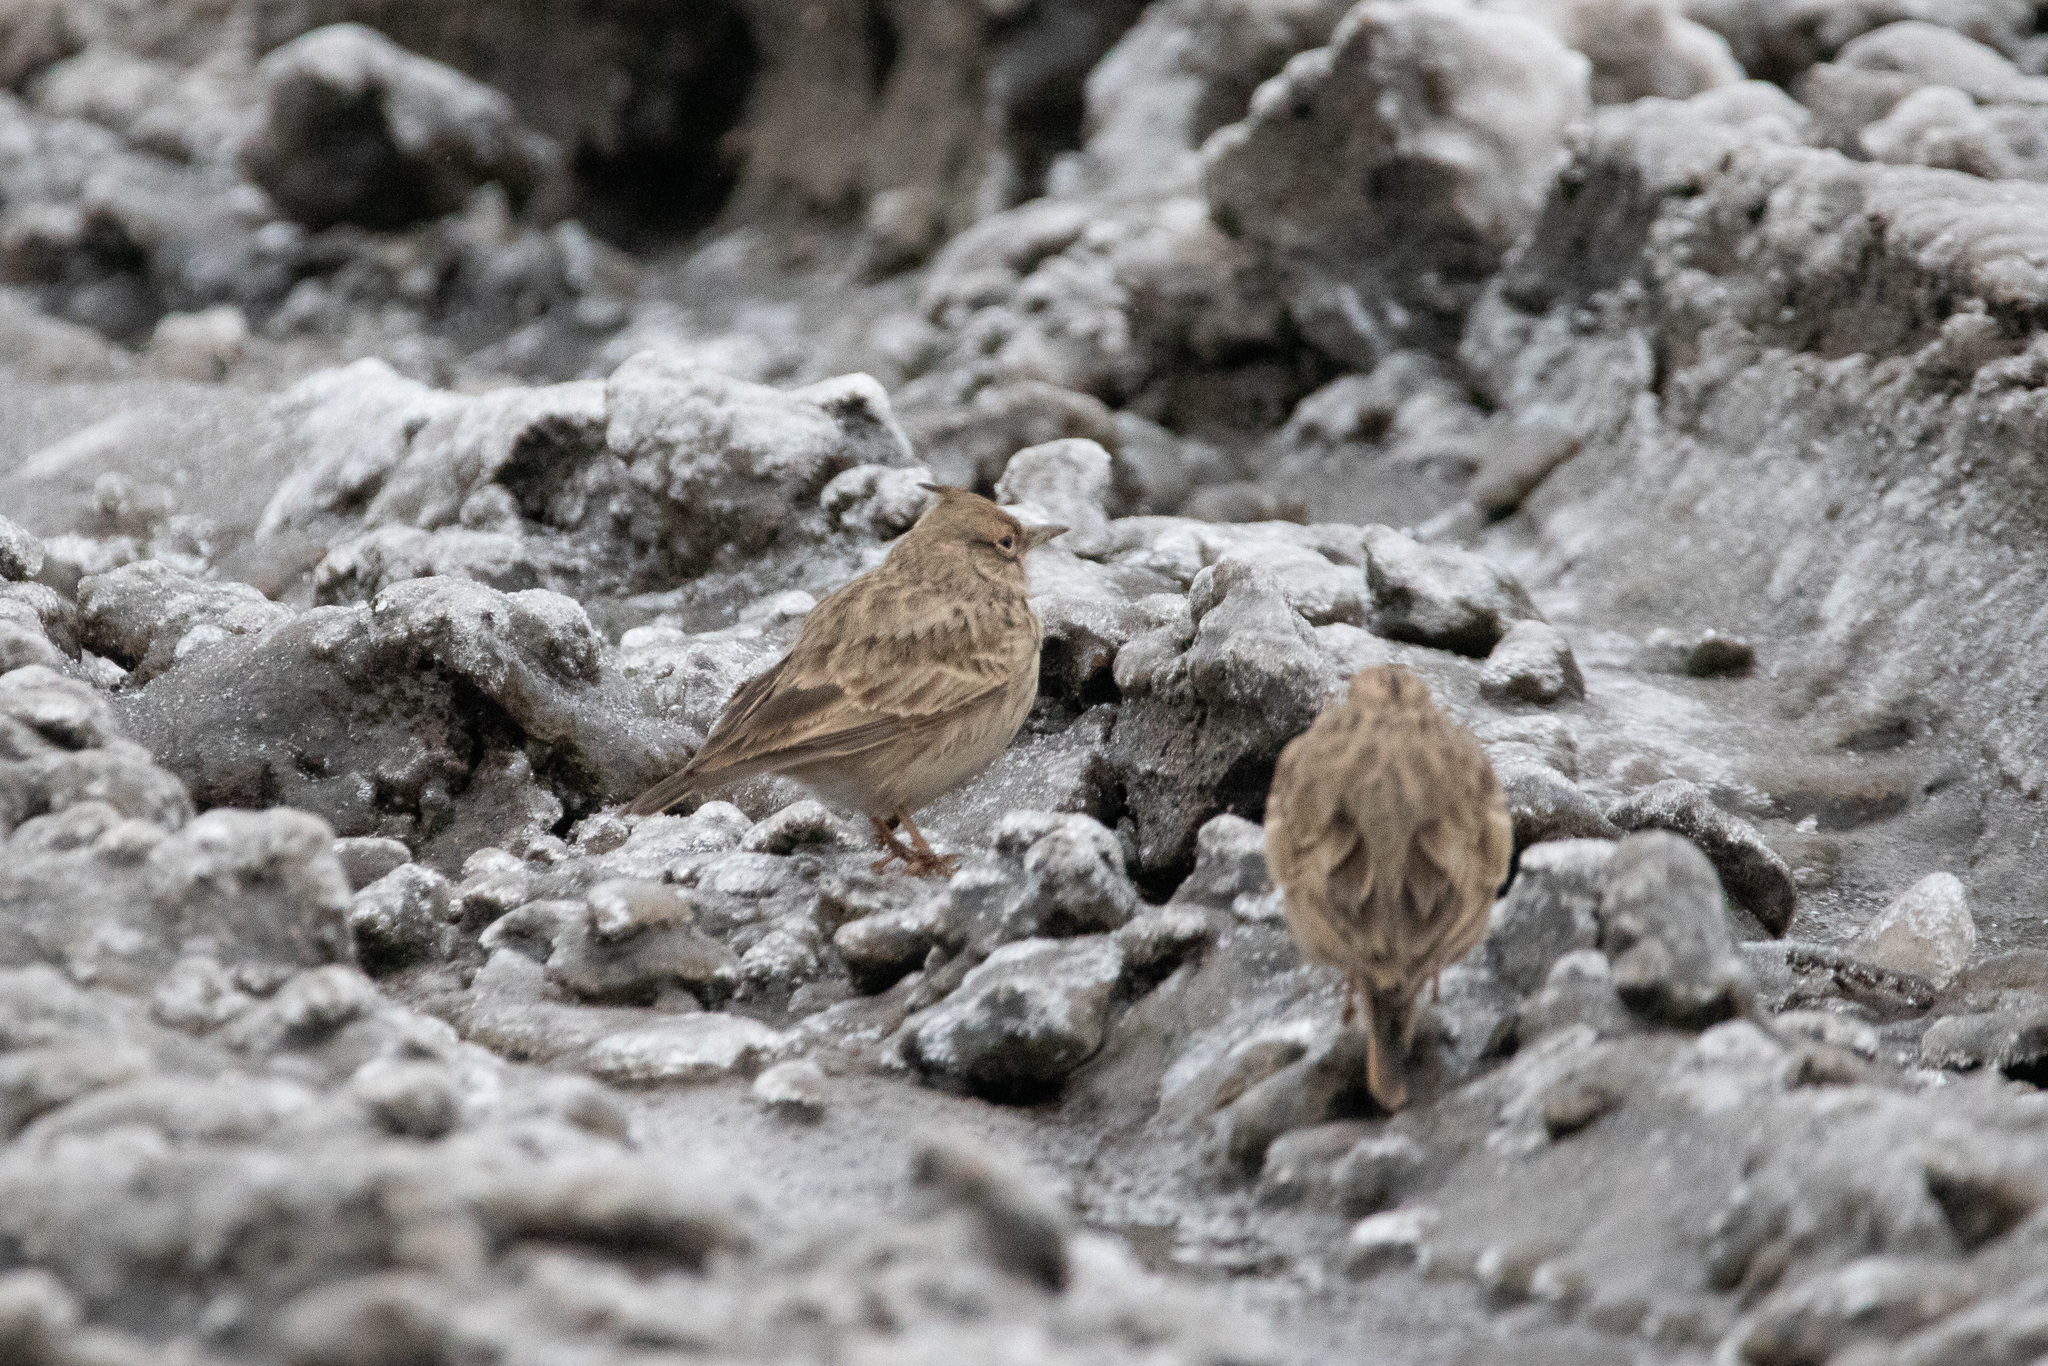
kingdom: Animalia
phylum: Chordata
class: Aves
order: Passeriformes
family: Alaudidae
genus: Galerida
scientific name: Galerida cristata
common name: Crested lark
